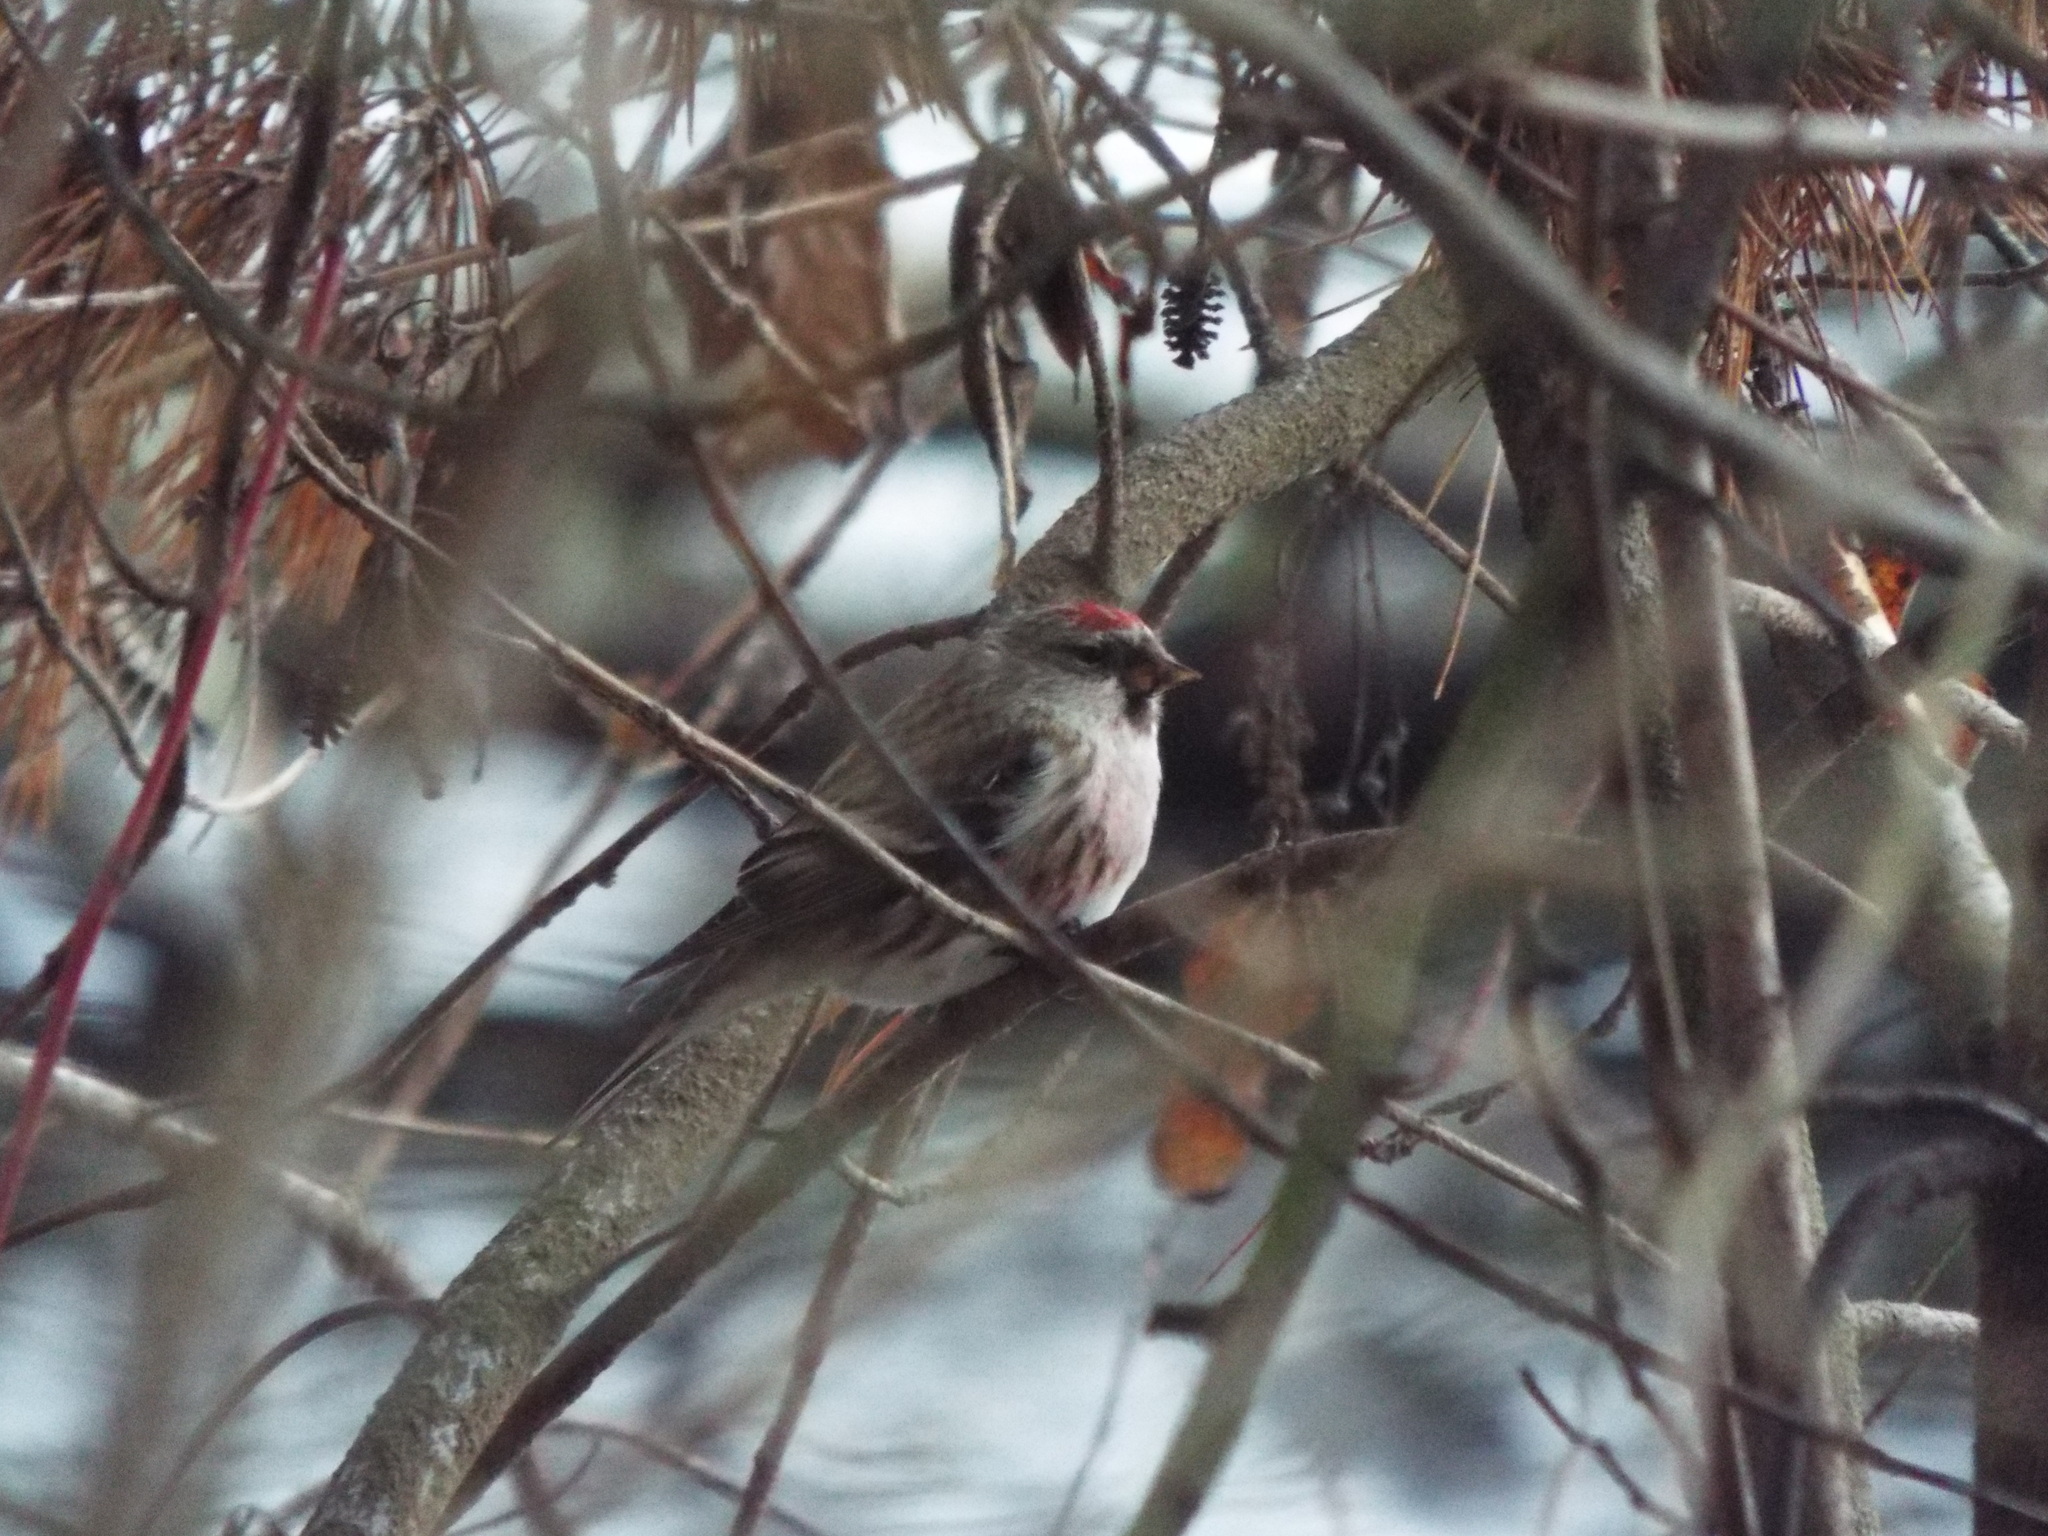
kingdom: Animalia
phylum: Chordata
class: Aves
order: Passeriformes
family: Fringillidae
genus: Acanthis
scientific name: Acanthis flammea
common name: Common redpoll
